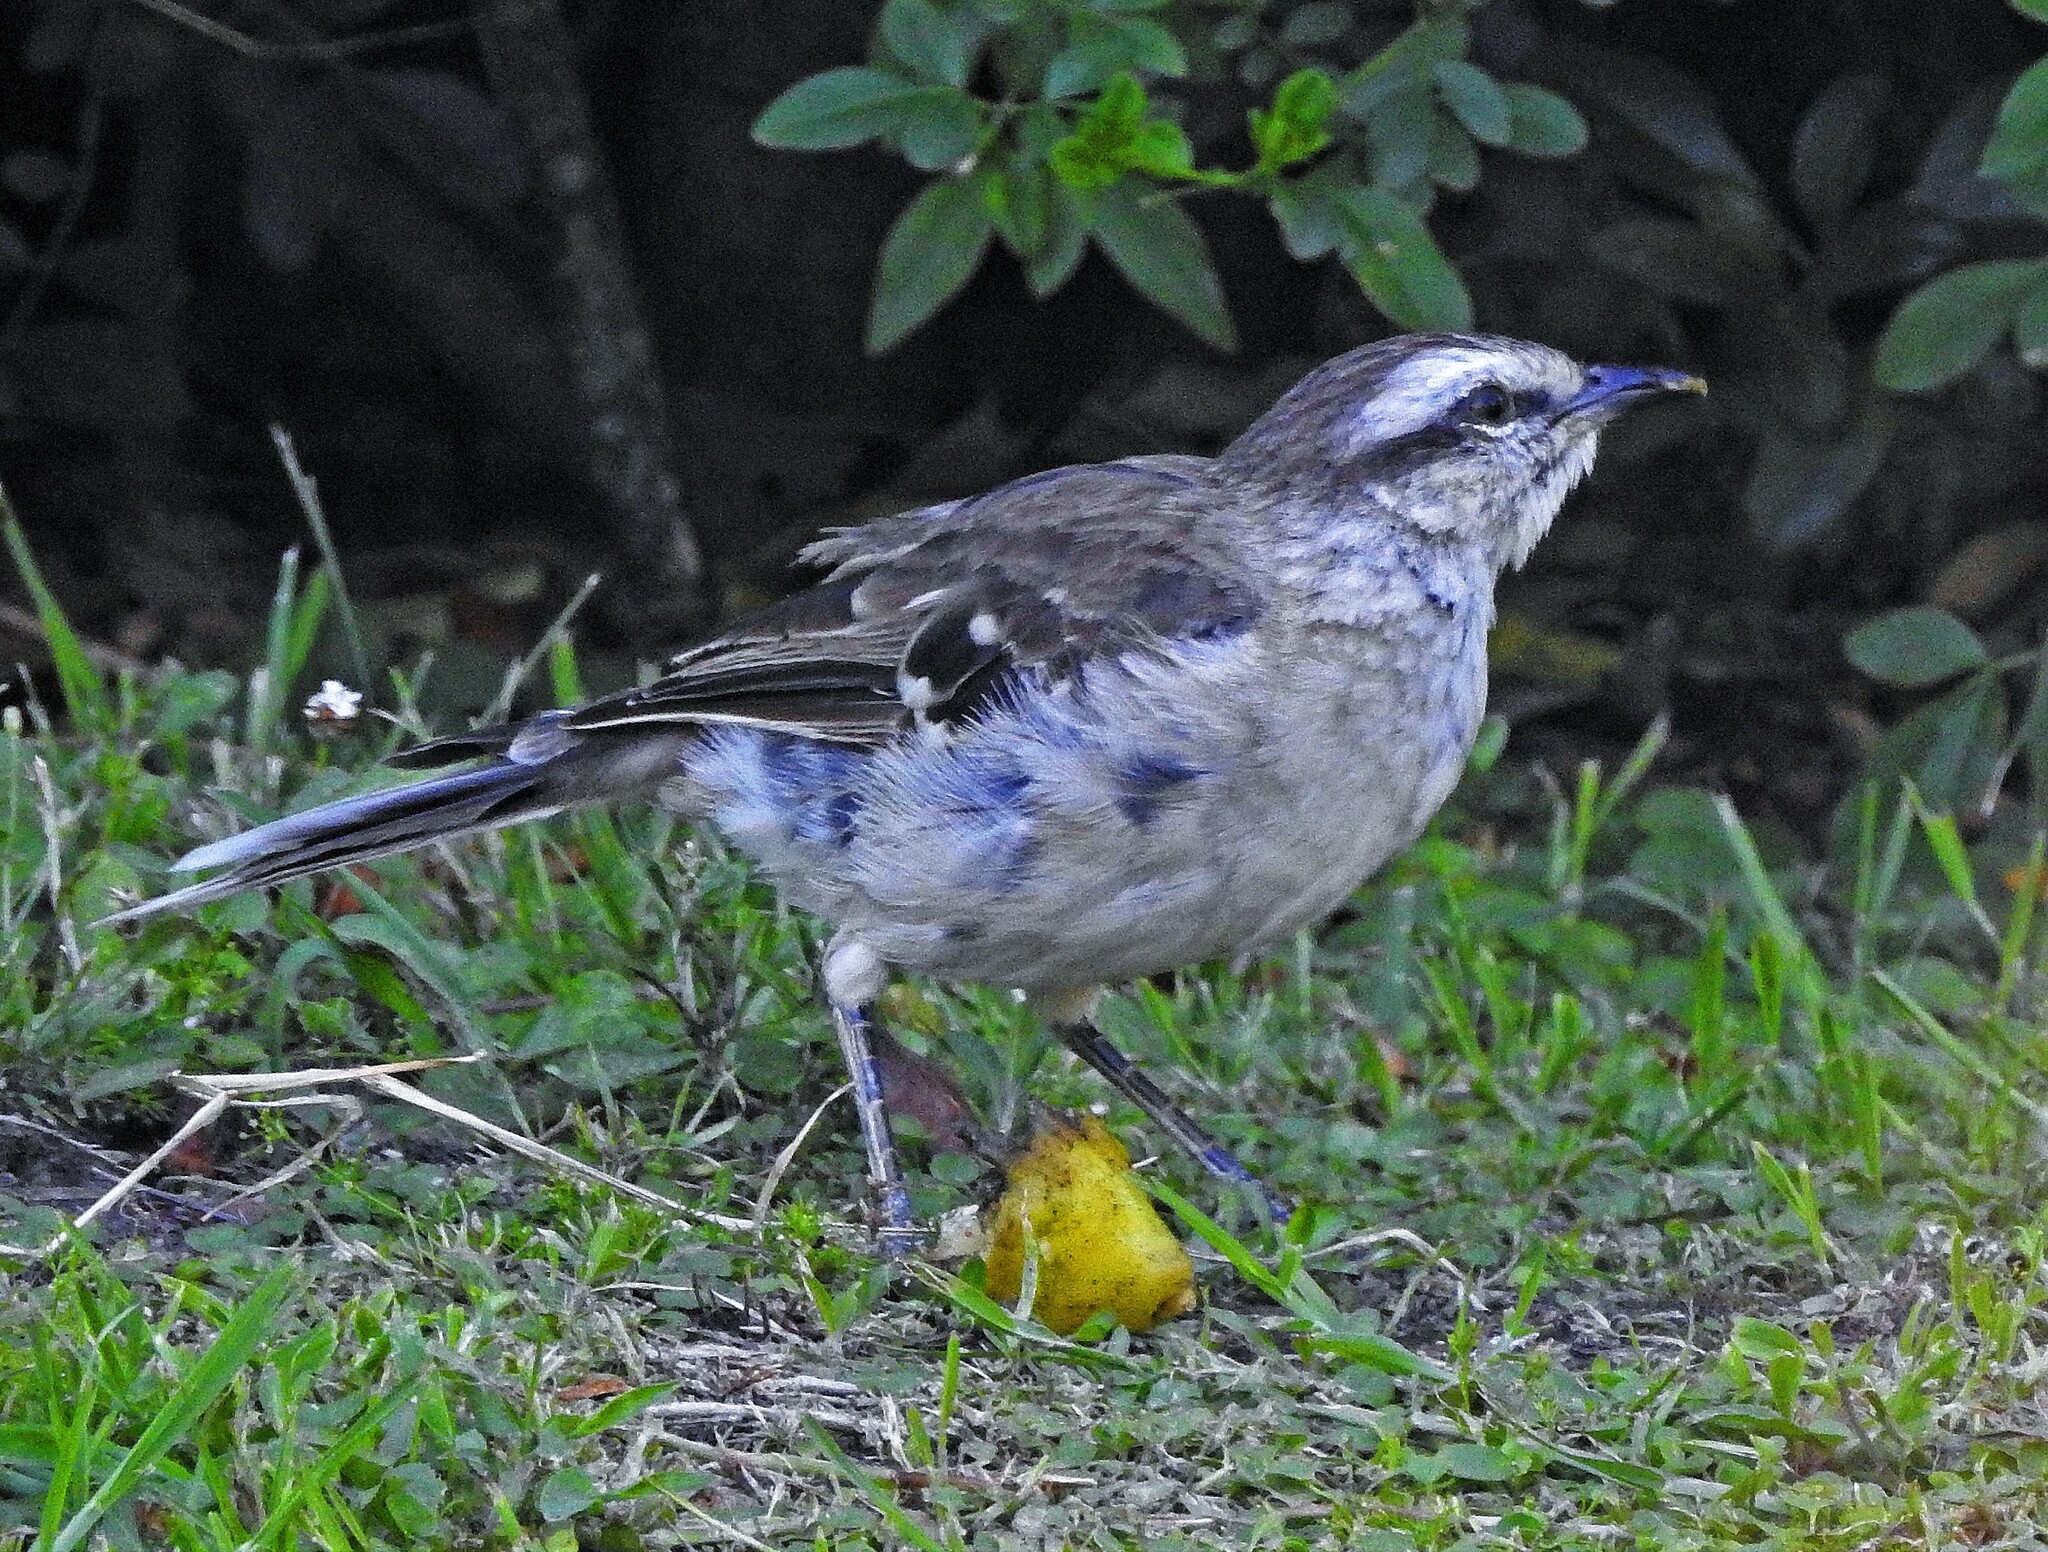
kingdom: Animalia
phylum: Chordata
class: Aves
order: Passeriformes
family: Mimidae
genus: Mimus
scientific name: Mimus saturninus
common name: Chalk-browed mockingbird
